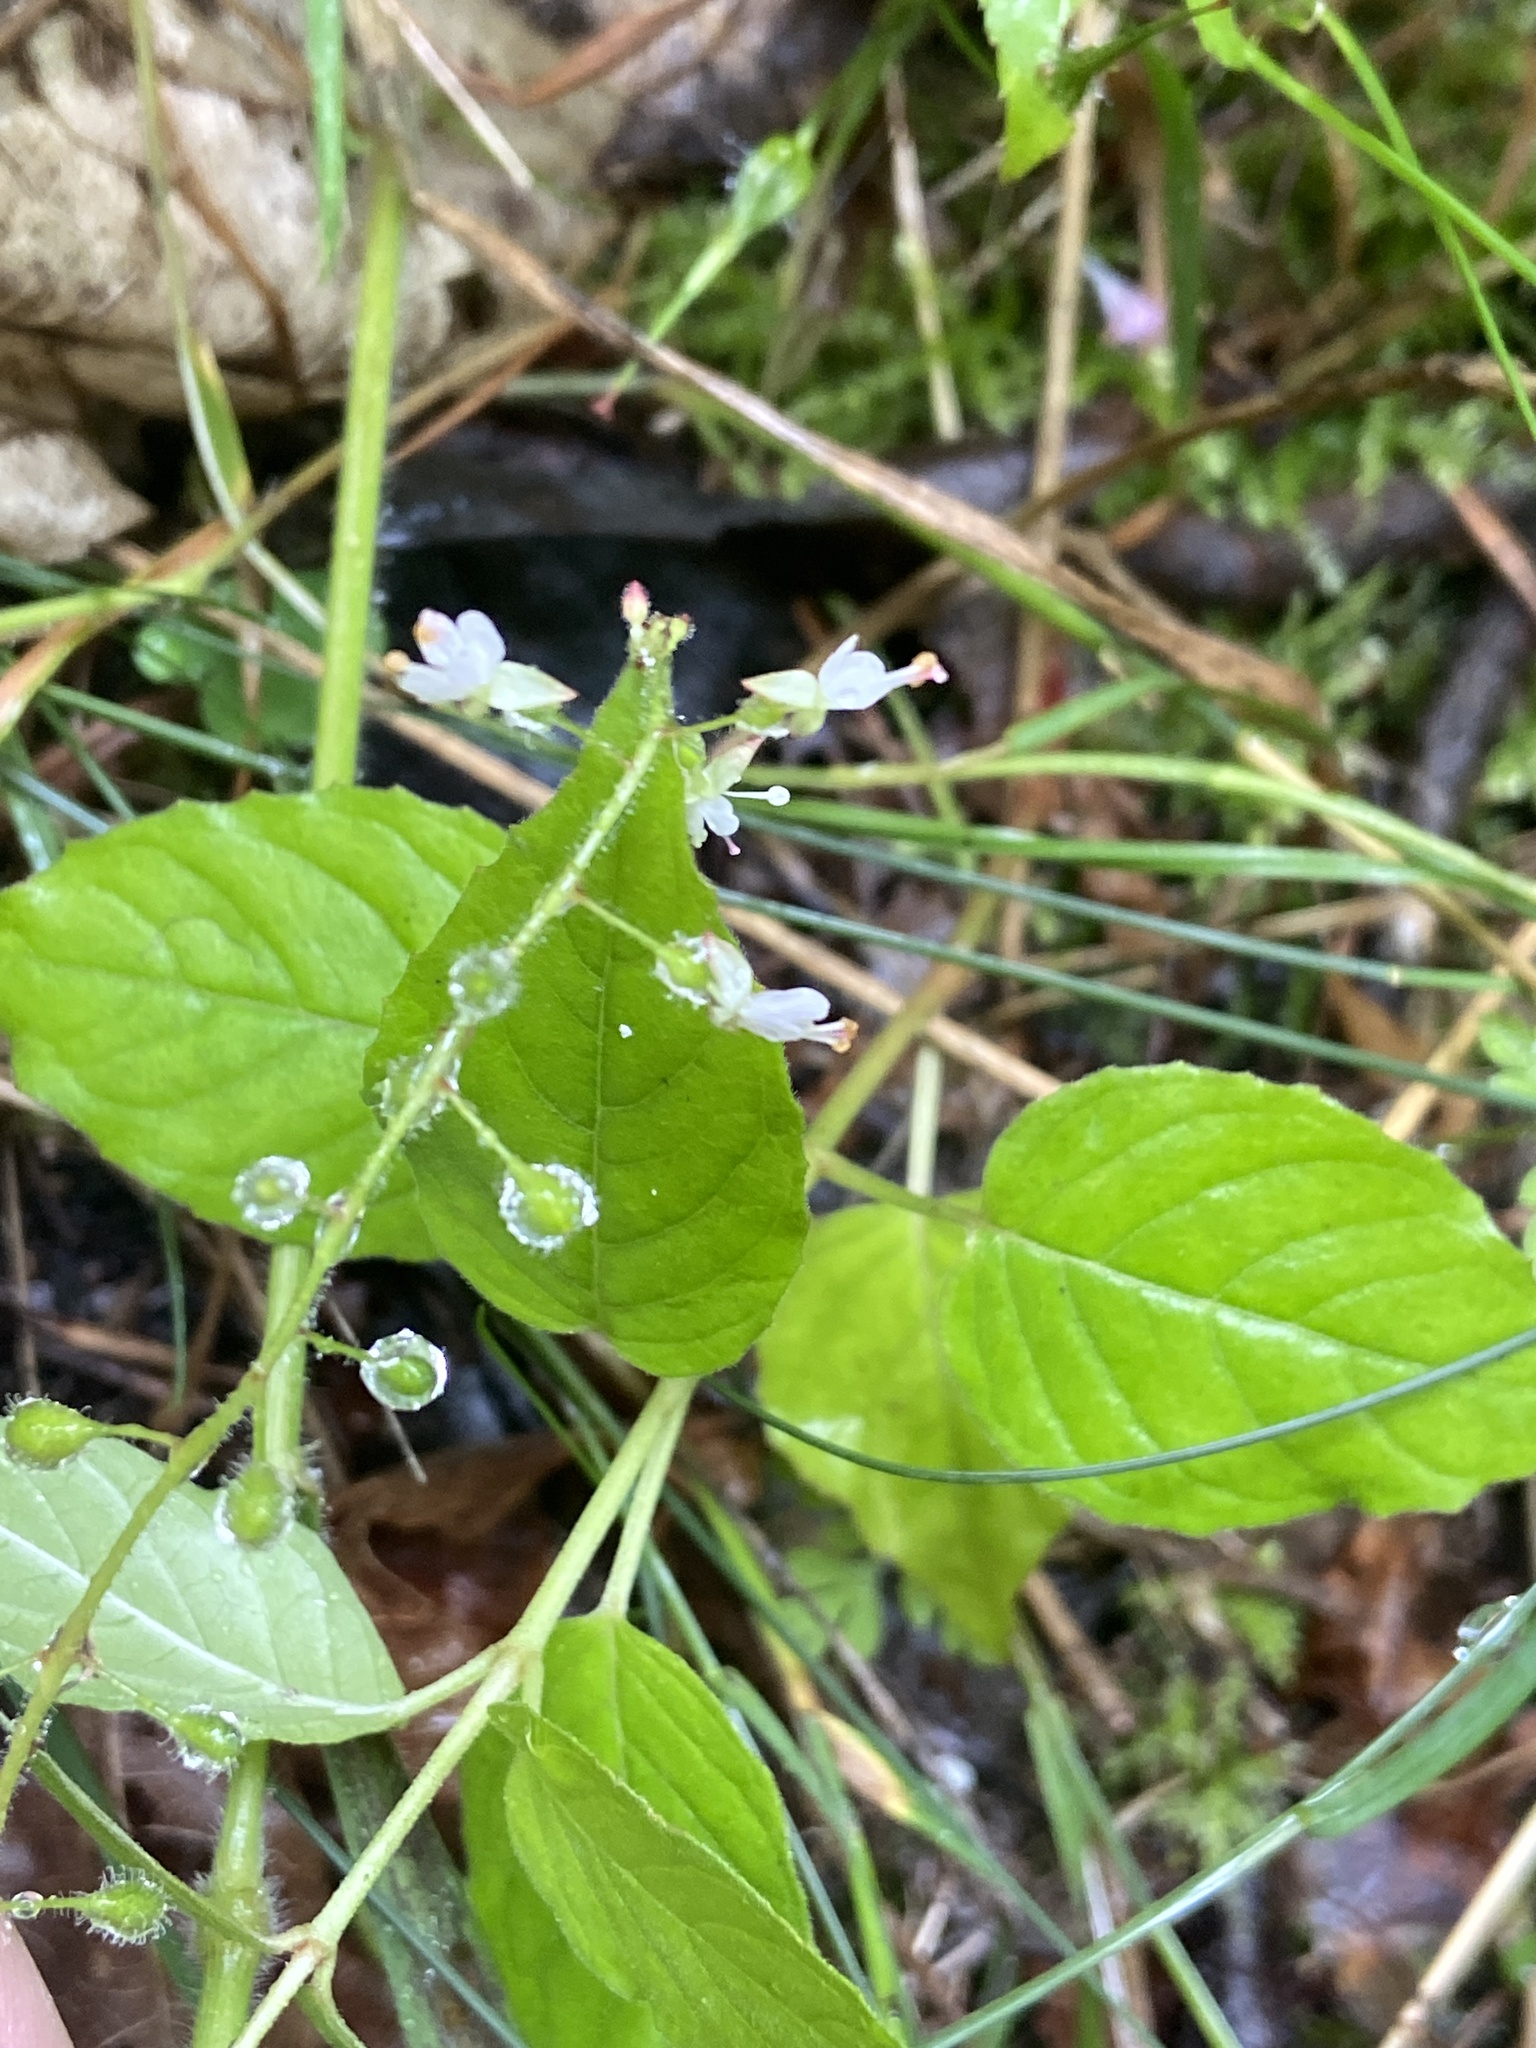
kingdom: Plantae
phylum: Tracheophyta
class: Magnoliopsida
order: Myrtales
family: Onagraceae
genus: Circaea
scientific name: Circaea lutetiana
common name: Enchanter's-nightshade
